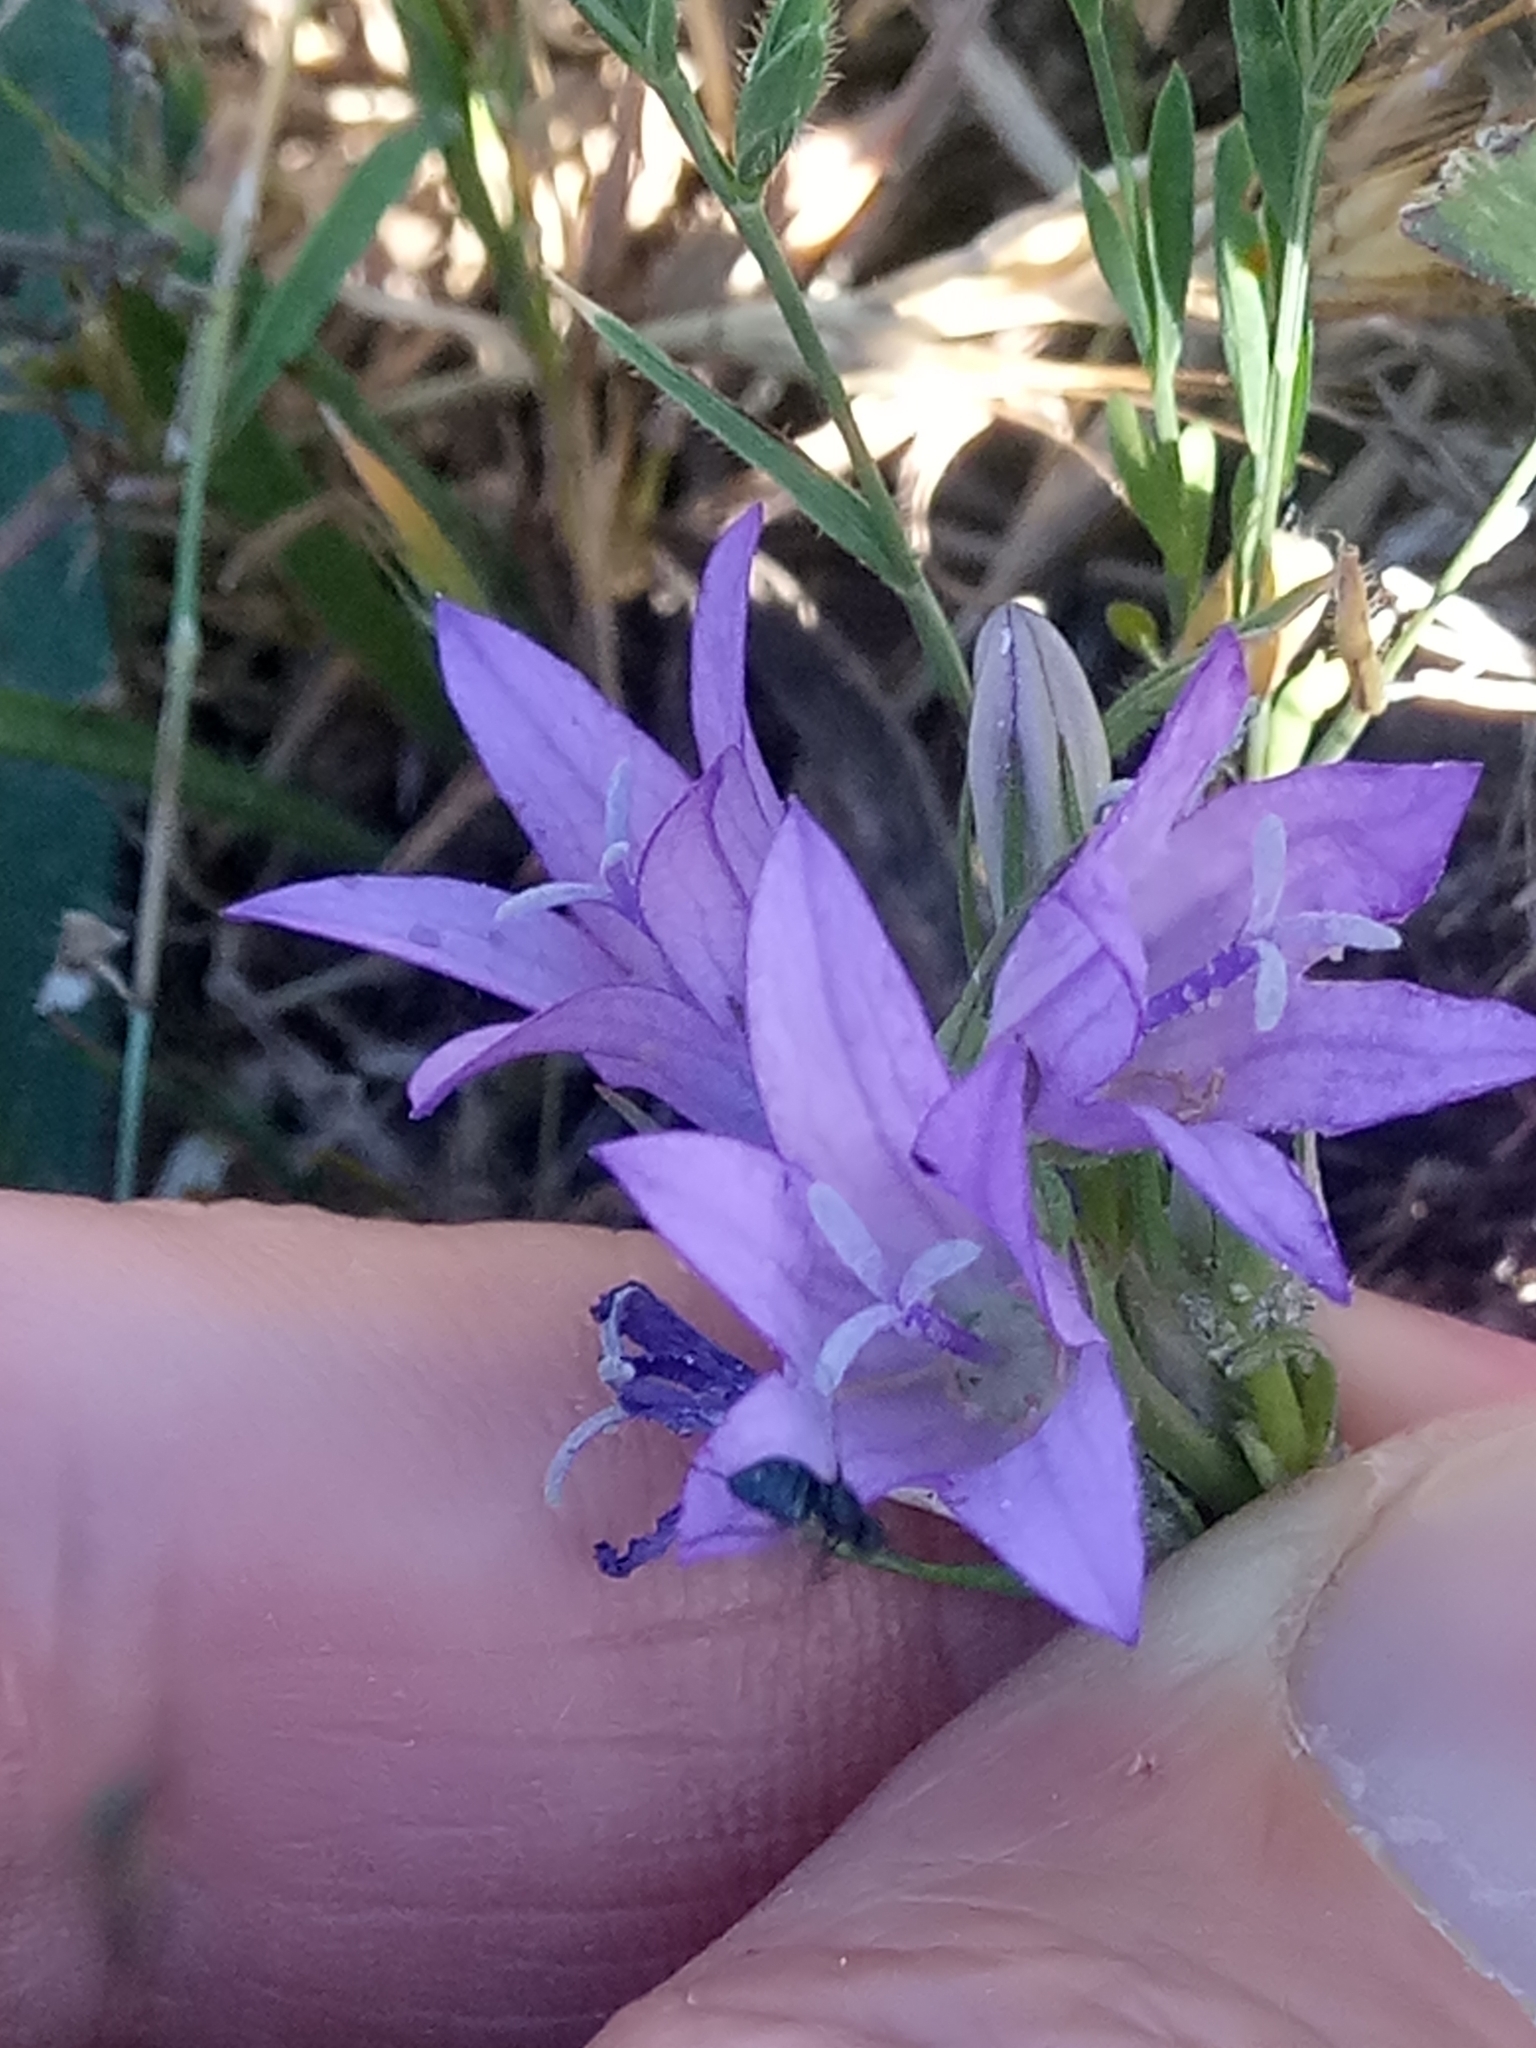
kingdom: Plantae
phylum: Tracheophyta
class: Magnoliopsida
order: Asterales
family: Campanulaceae
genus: Campanula
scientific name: Campanula rapunculus
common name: Rampion bellflower
